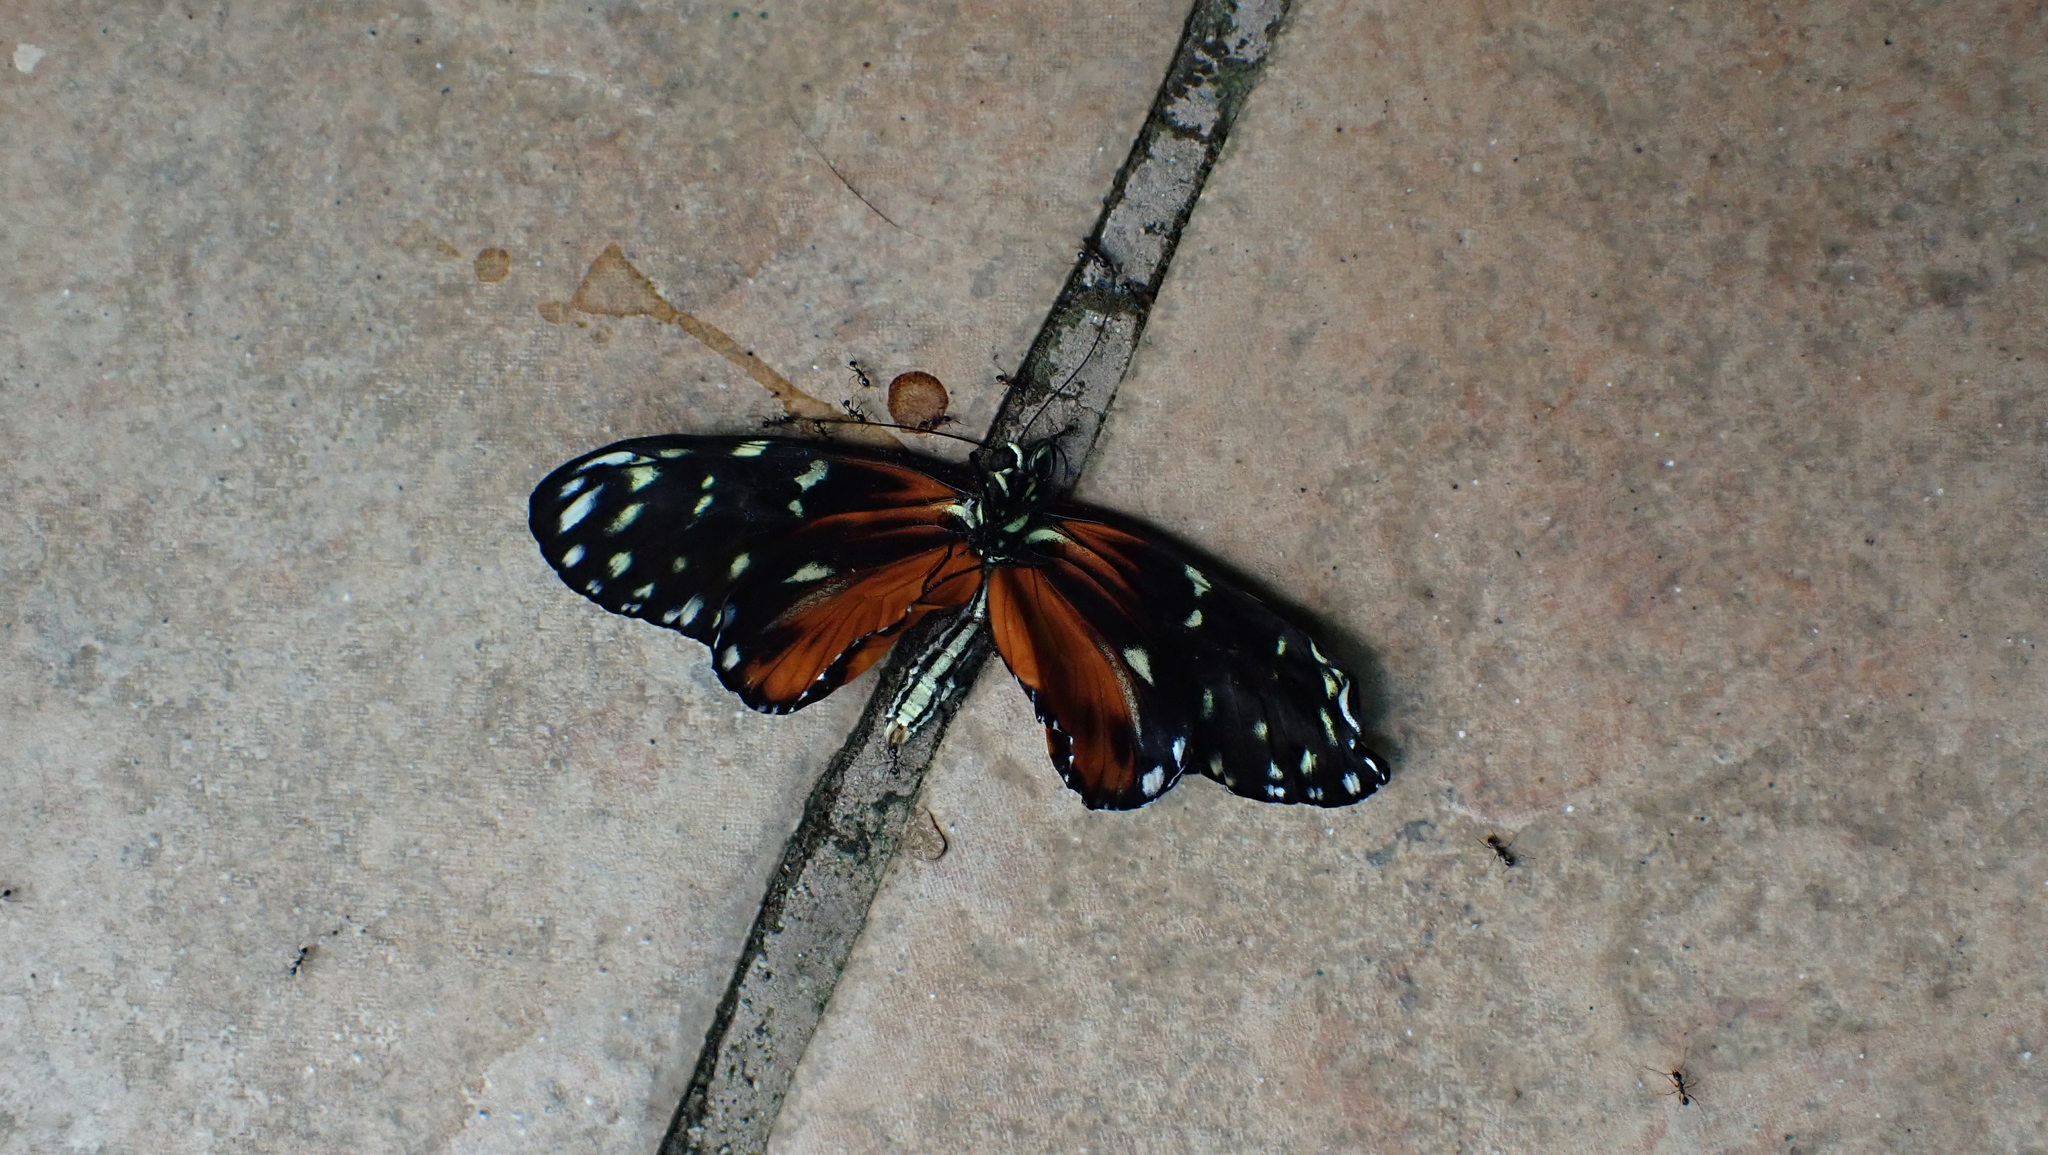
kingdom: Animalia
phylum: Arthropoda
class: Insecta
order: Lepidoptera
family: Nymphalidae
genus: Heliconius
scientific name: Heliconius hecale
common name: Tiger longwing
